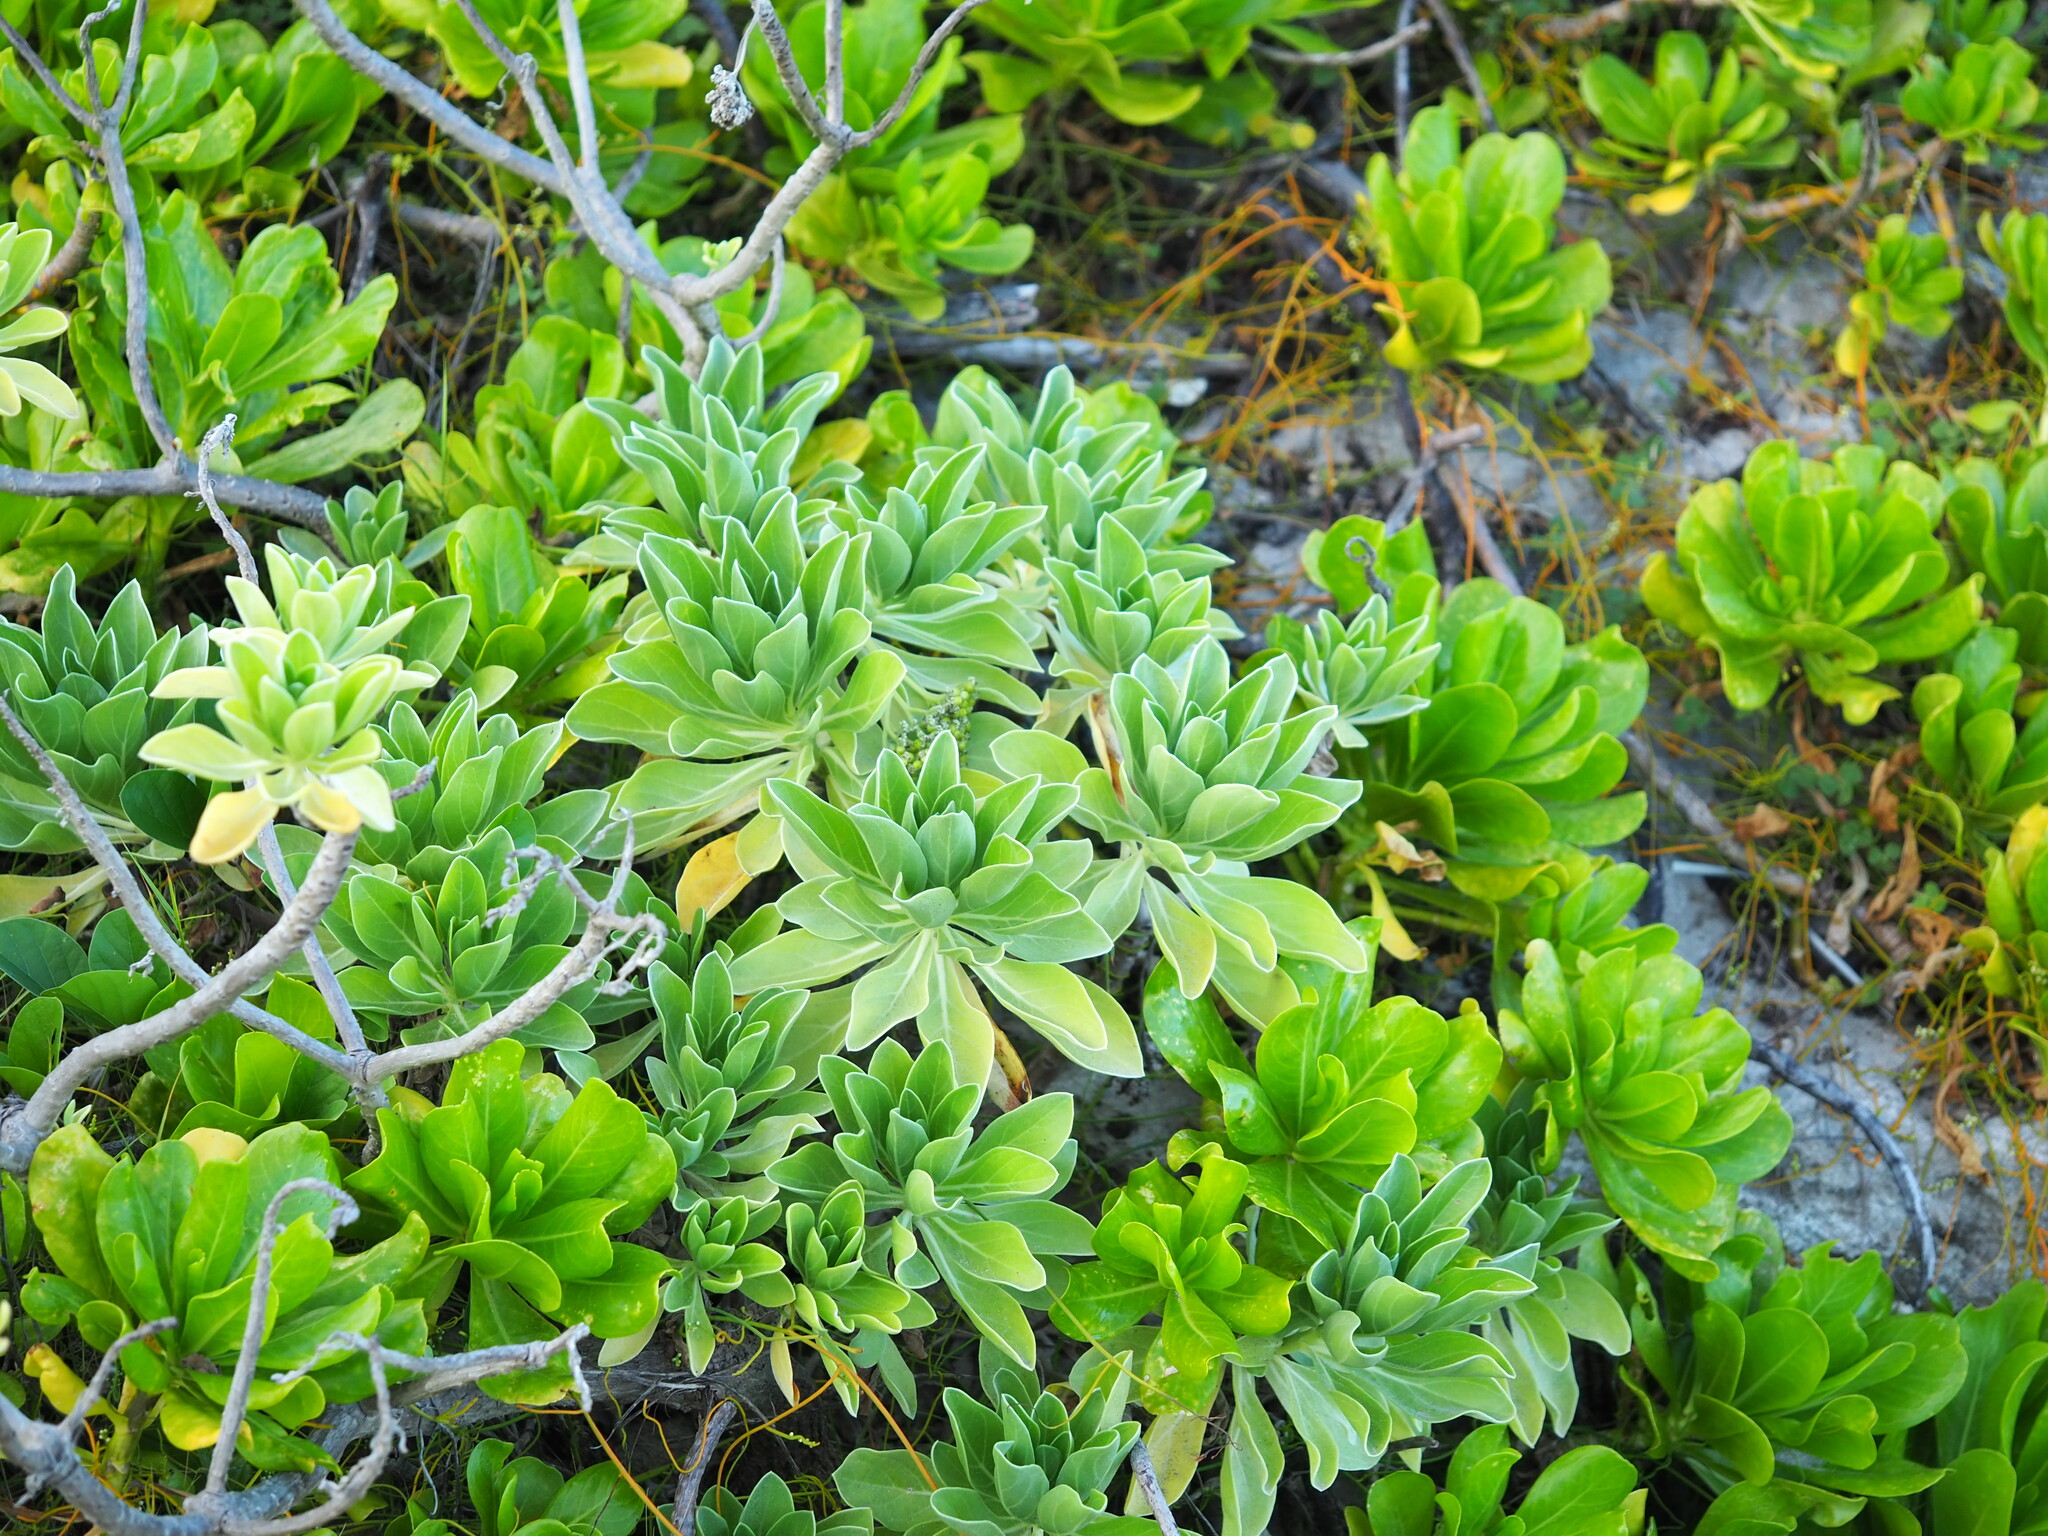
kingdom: Plantae
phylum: Tracheophyta
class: Magnoliopsida
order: Boraginales
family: Heliotropiaceae
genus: Heliotropium
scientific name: Heliotropium velutinum
